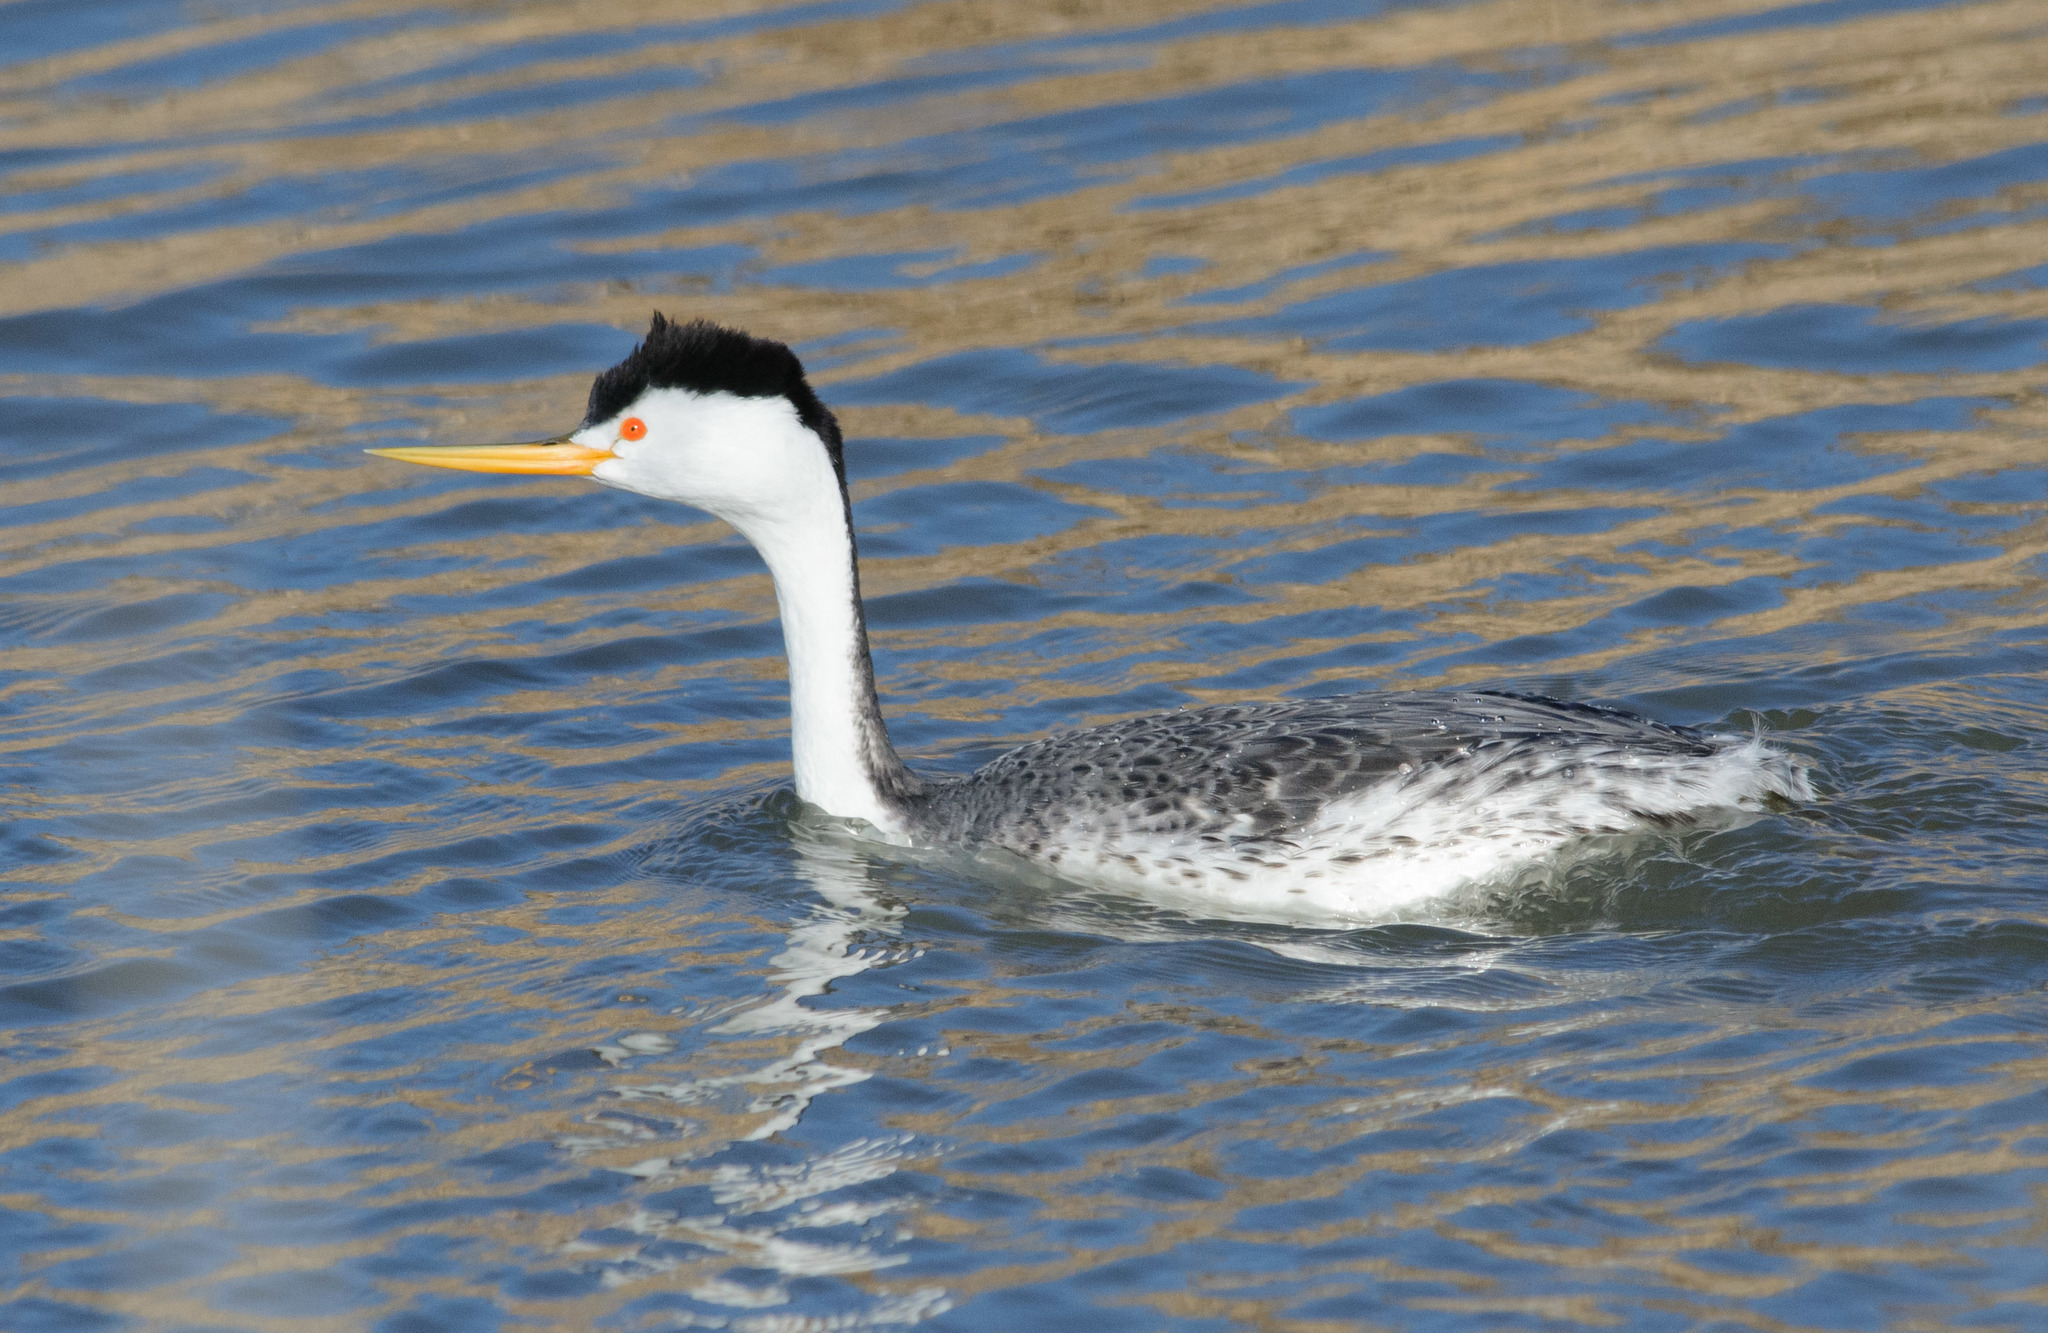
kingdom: Animalia
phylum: Chordata
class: Aves
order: Podicipediformes
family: Podicipedidae
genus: Aechmophorus
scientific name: Aechmophorus clarkii
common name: Clark's grebe
